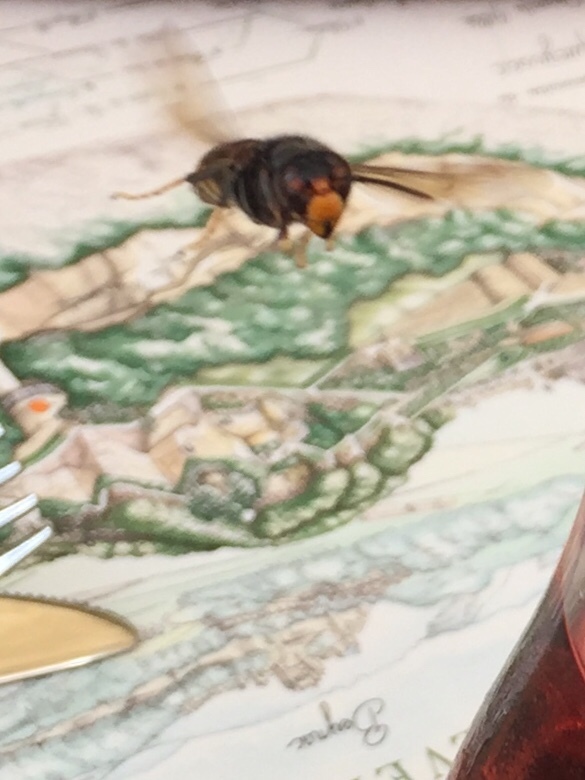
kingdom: Animalia
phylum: Arthropoda
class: Insecta
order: Hymenoptera
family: Vespidae
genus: Vespa
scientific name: Vespa velutina
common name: Asian hornet
